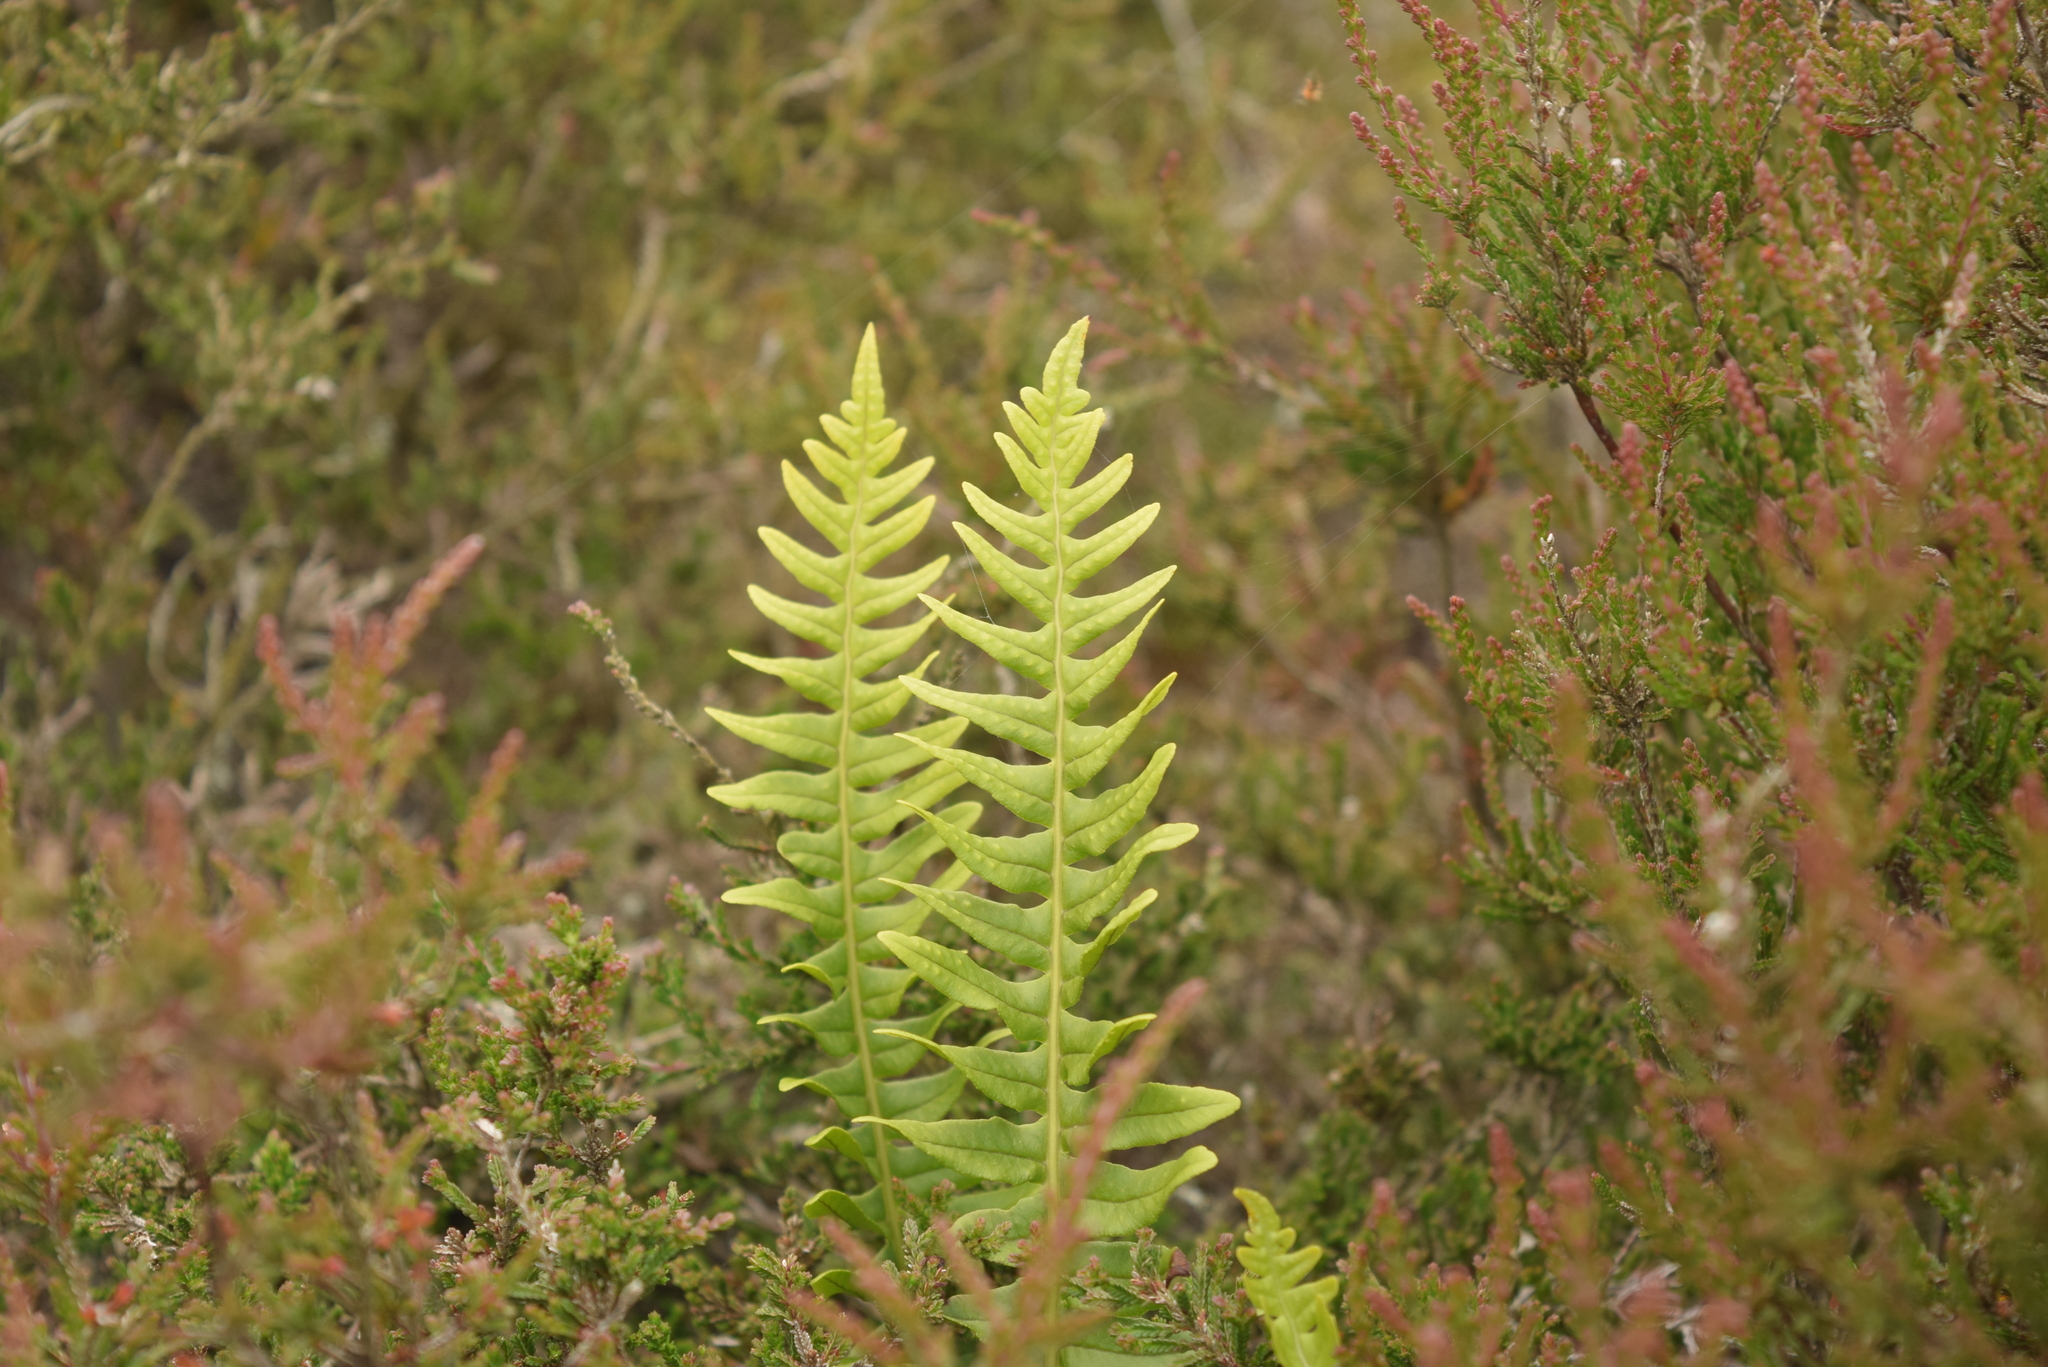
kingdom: Plantae
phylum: Tracheophyta
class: Polypodiopsida
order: Polypodiales
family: Polypodiaceae
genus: Polypodium
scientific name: Polypodium
